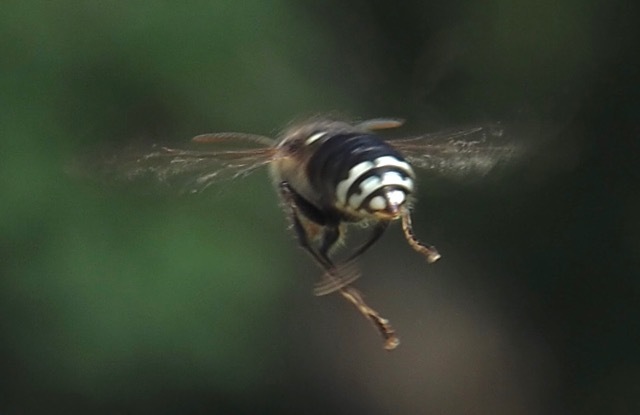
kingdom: Animalia
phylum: Arthropoda
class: Insecta
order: Hymenoptera
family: Vespidae
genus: Dolichovespula
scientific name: Dolichovespula maculata
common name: Bald-faced hornet
